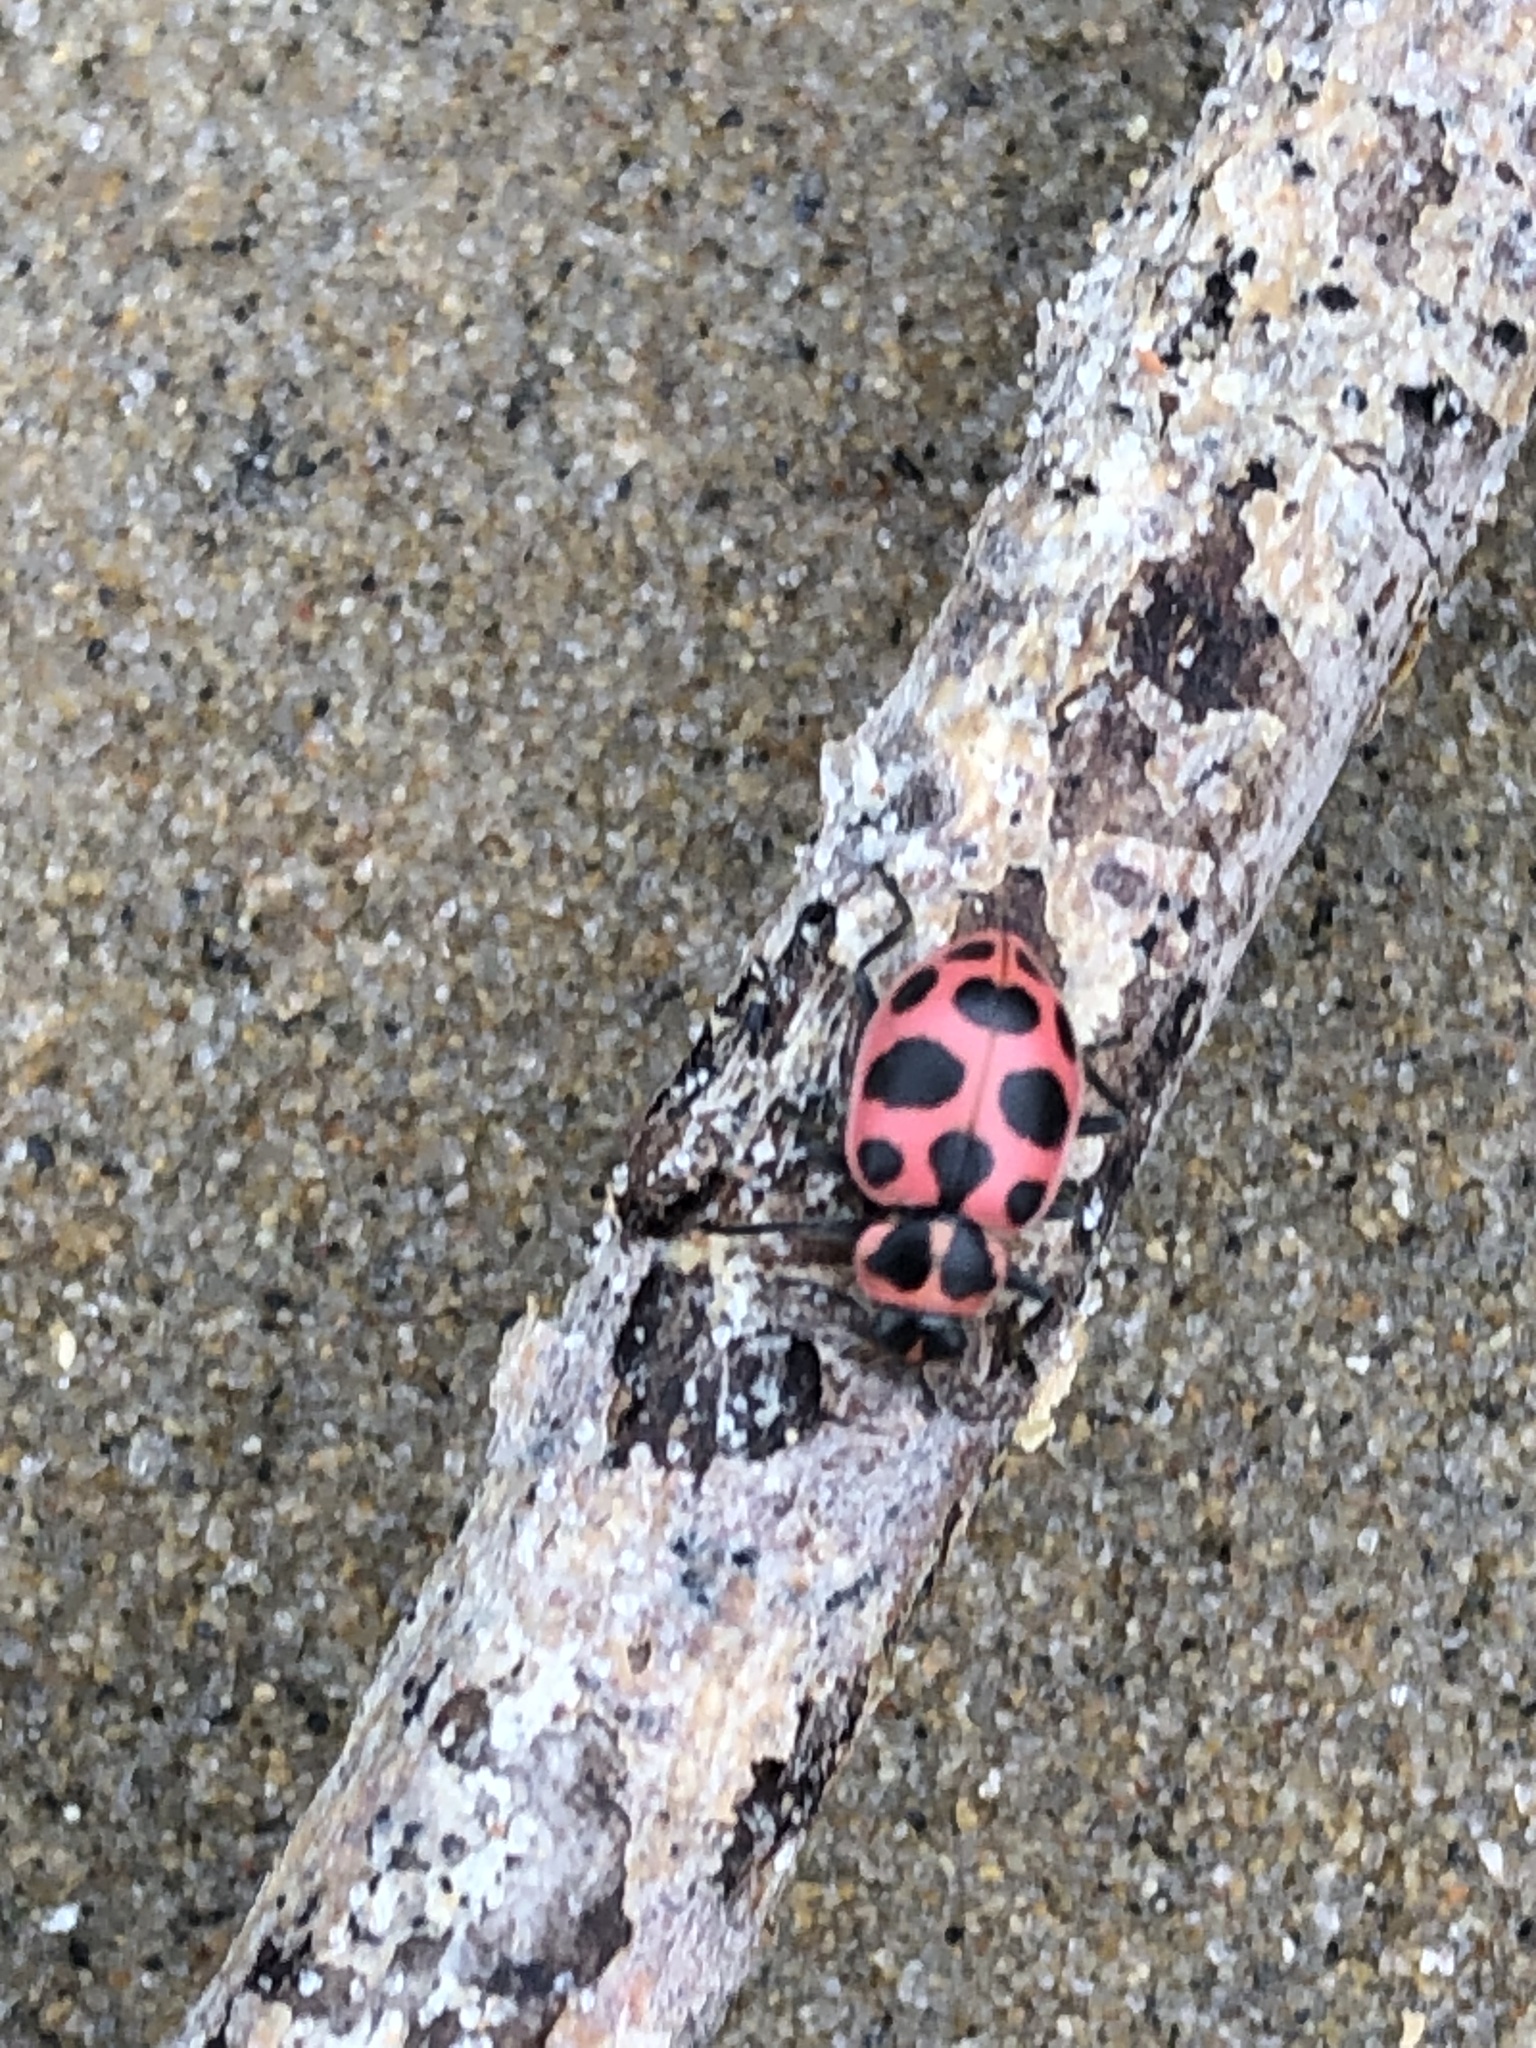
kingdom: Animalia
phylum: Arthropoda
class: Insecta
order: Coleoptera
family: Coccinellidae
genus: Coleomegilla
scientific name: Coleomegilla maculata
